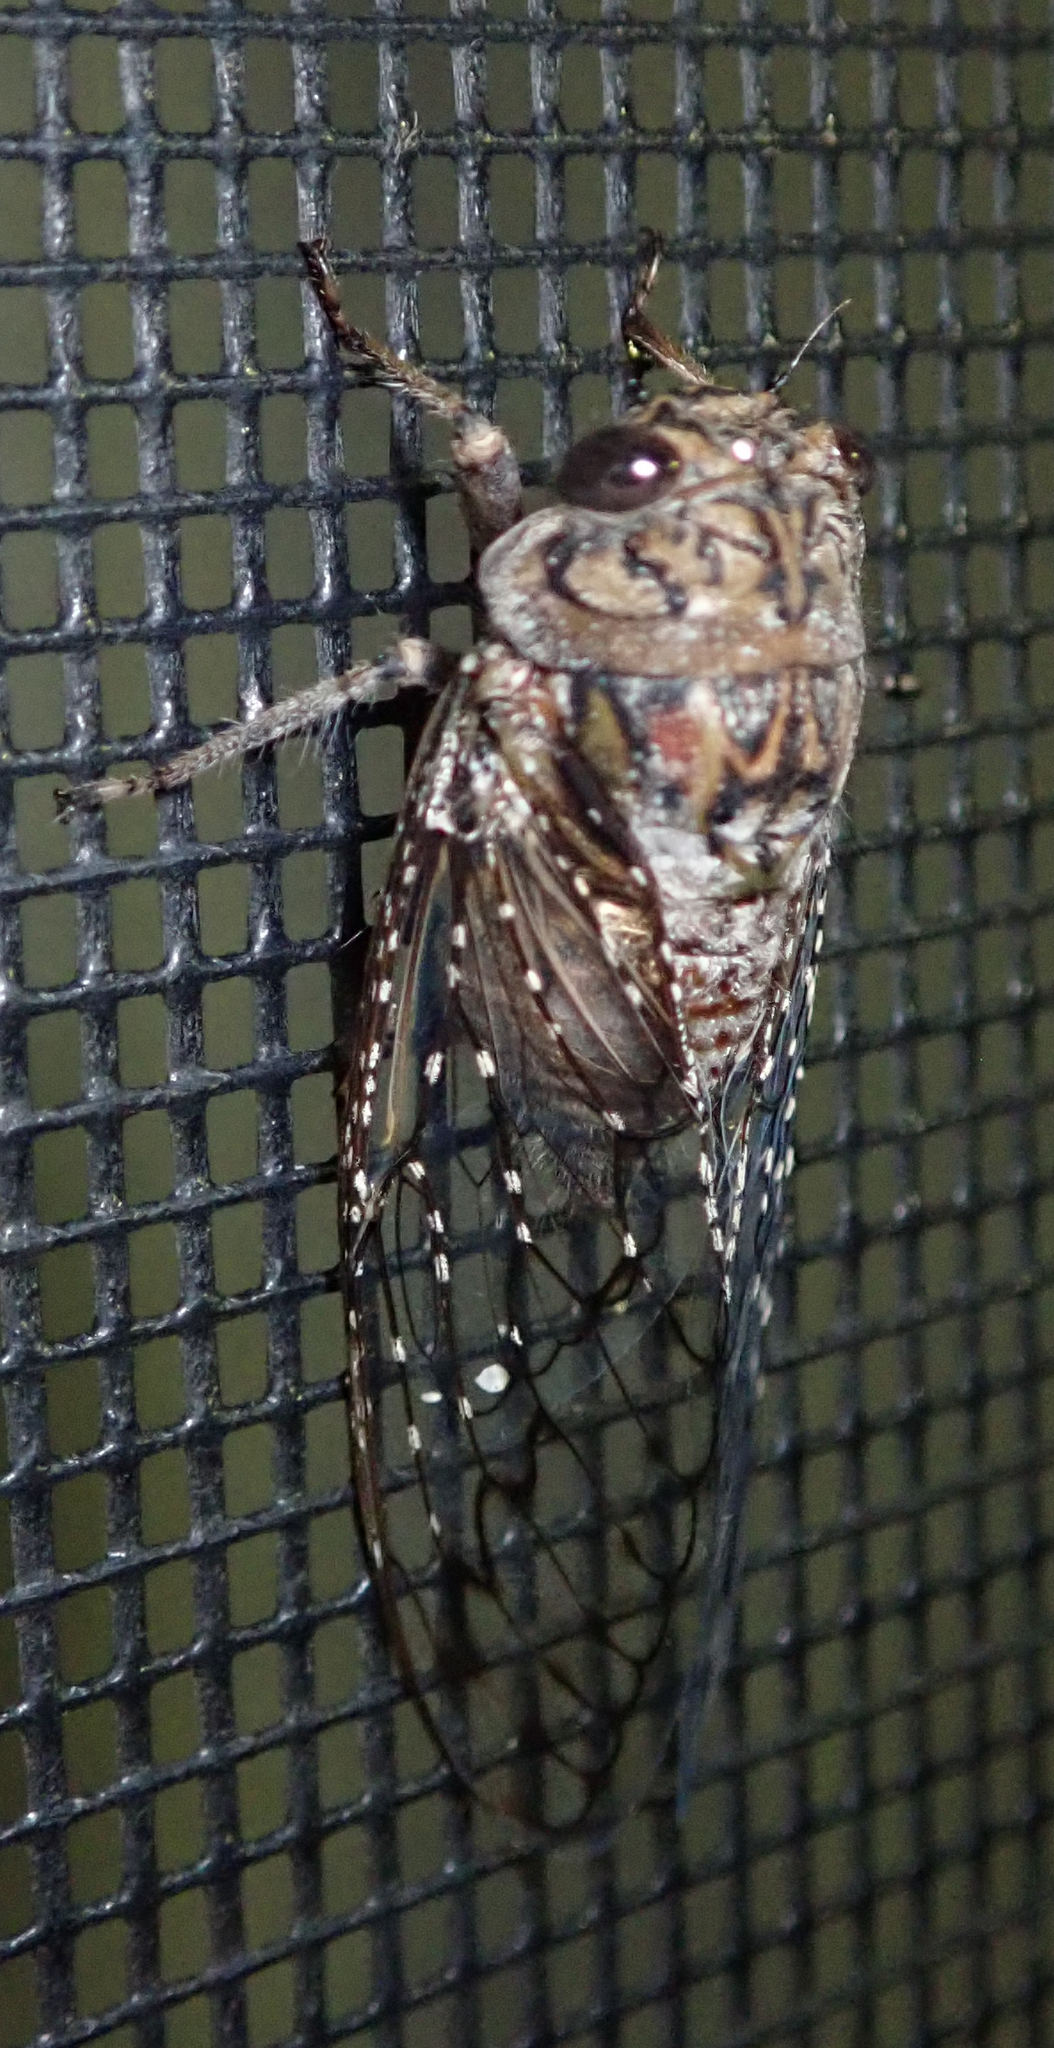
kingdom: Animalia
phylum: Arthropoda
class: Insecta
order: Hemiptera
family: Cicadidae
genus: Brevisiana
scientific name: Brevisiana brevis
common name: Shrill thorntree cicada
